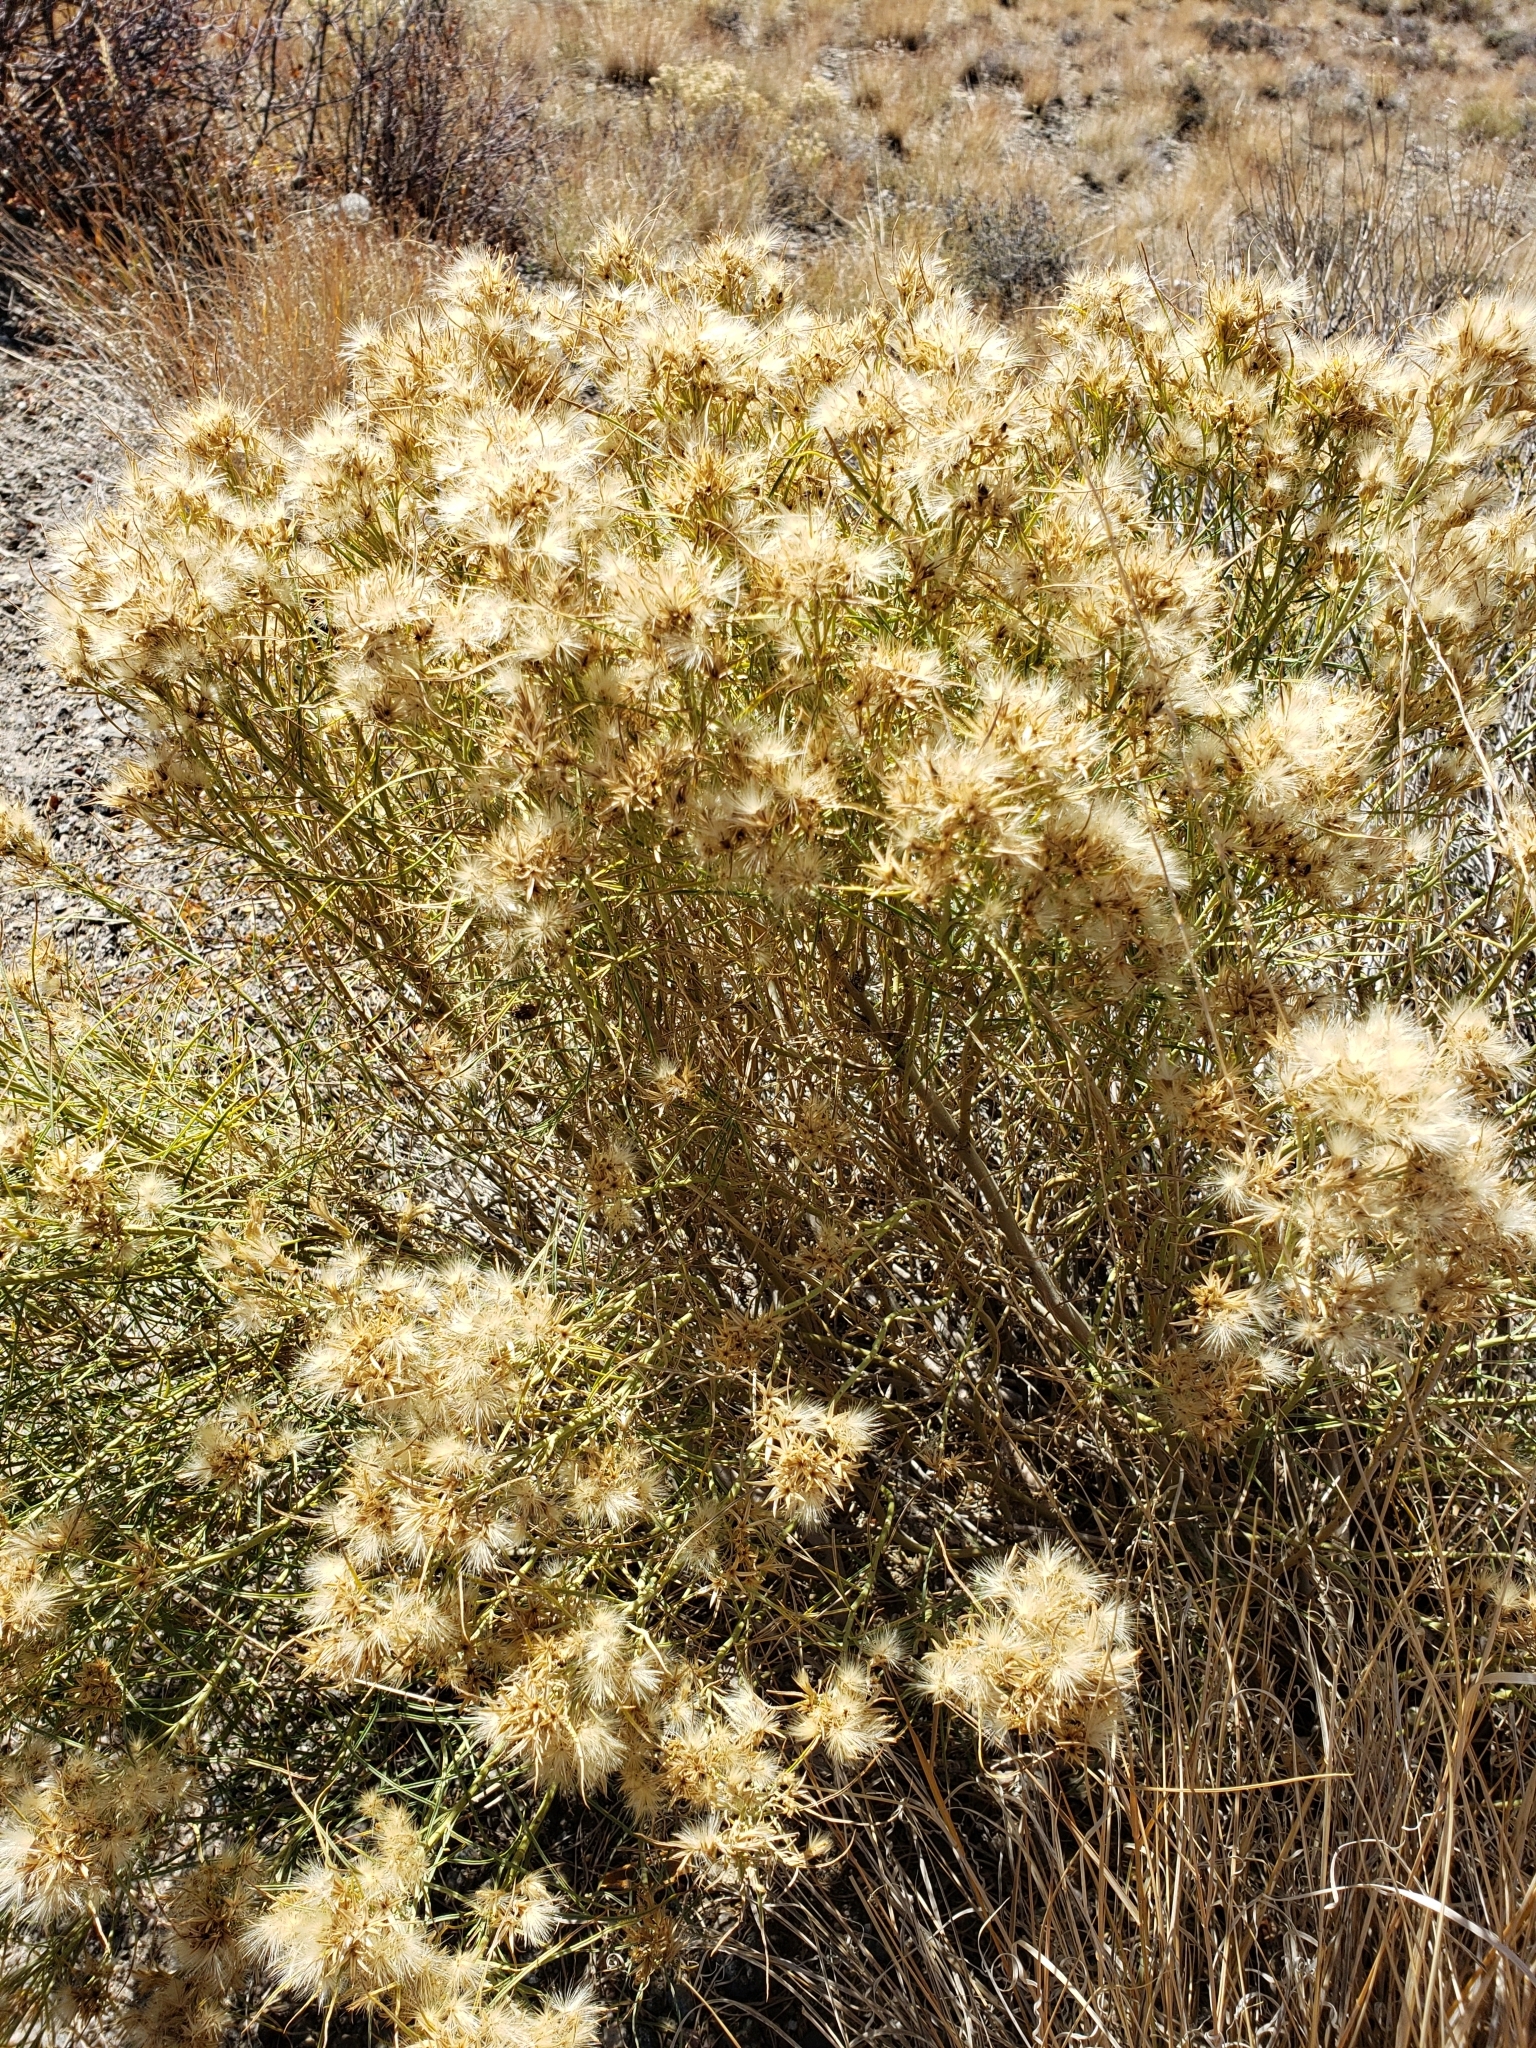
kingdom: Plantae
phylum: Tracheophyta
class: Magnoliopsida
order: Asterales
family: Asteraceae
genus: Ericameria
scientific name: Ericameria nauseosa
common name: Rubber rabbitbrush
